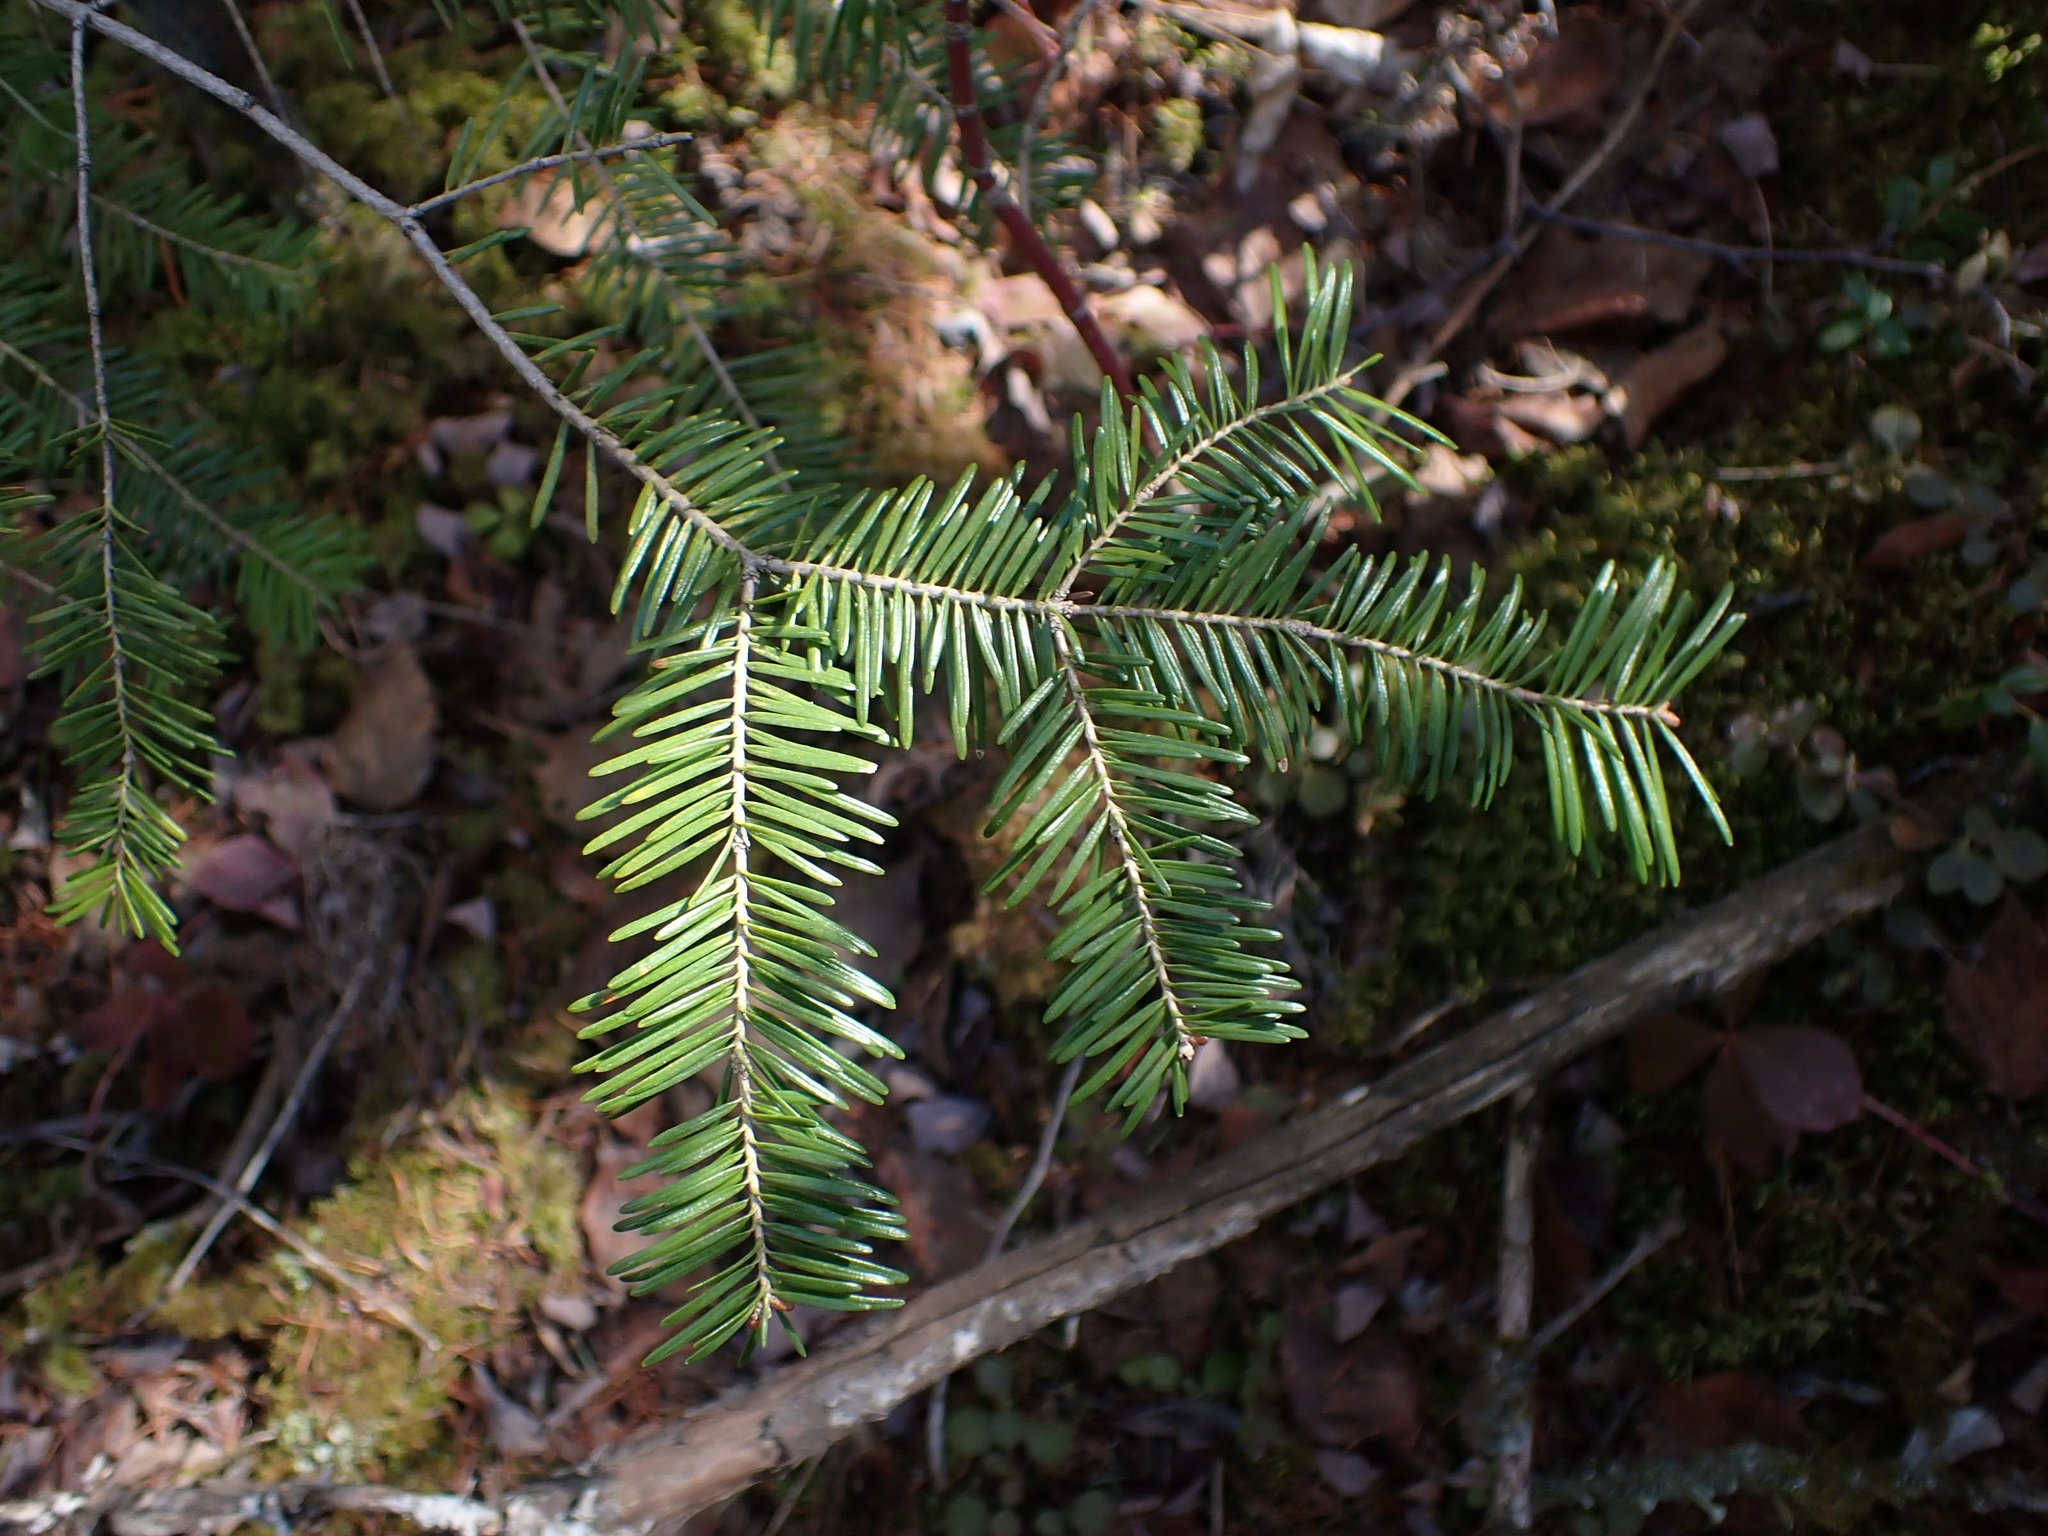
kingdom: Plantae
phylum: Tracheophyta
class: Pinopsida
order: Pinales
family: Pinaceae
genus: Abies
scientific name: Abies balsamea
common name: Balsam fir
